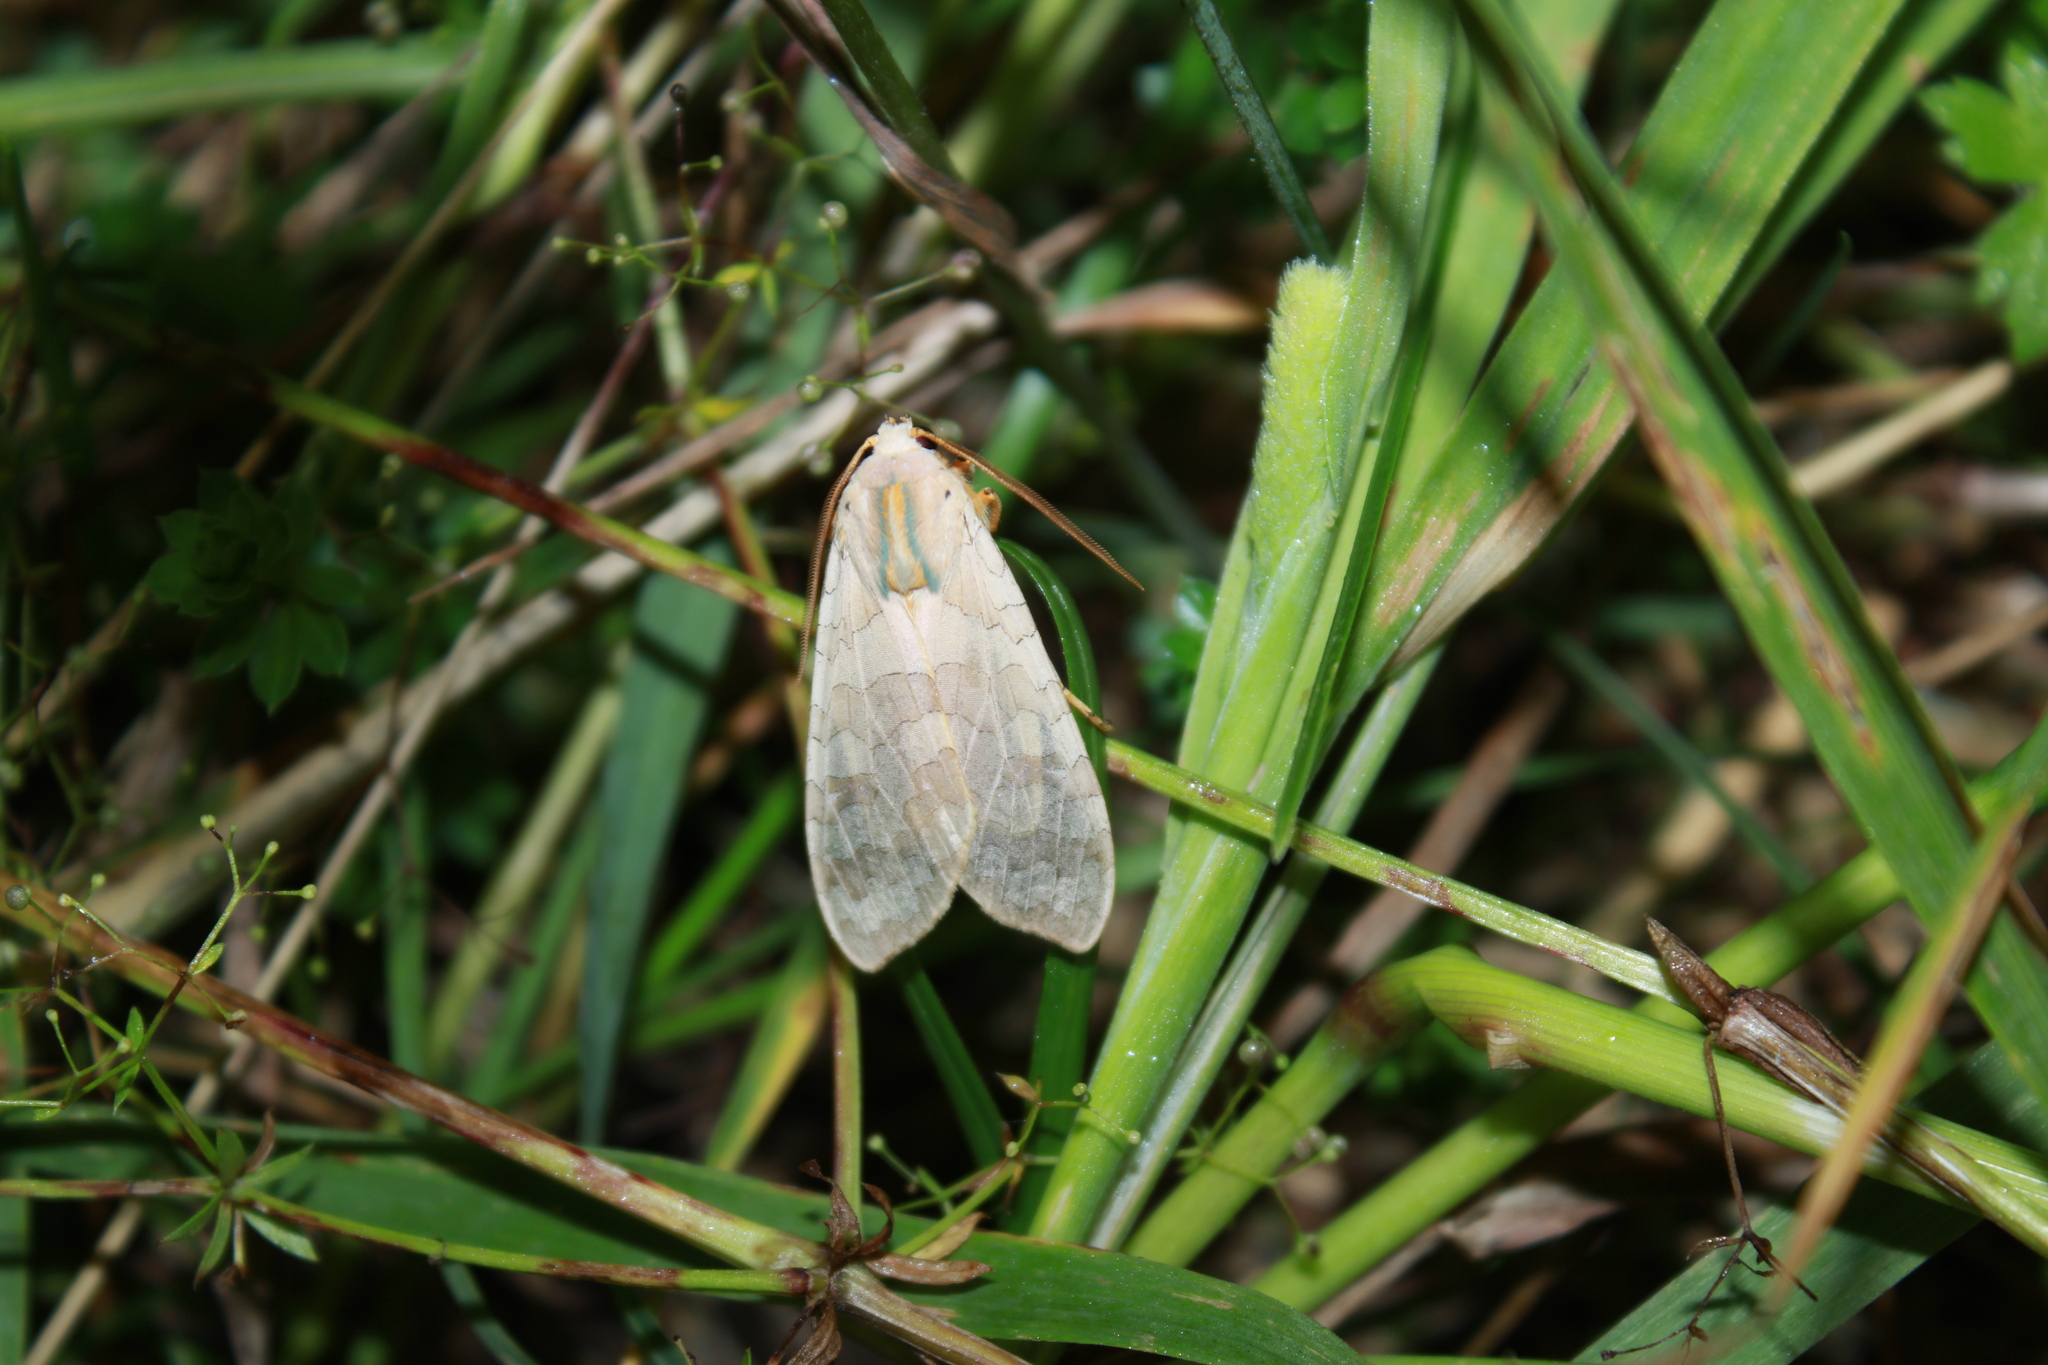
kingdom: Animalia
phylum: Arthropoda
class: Insecta
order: Lepidoptera
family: Erebidae
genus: Halysidota
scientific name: Halysidota
